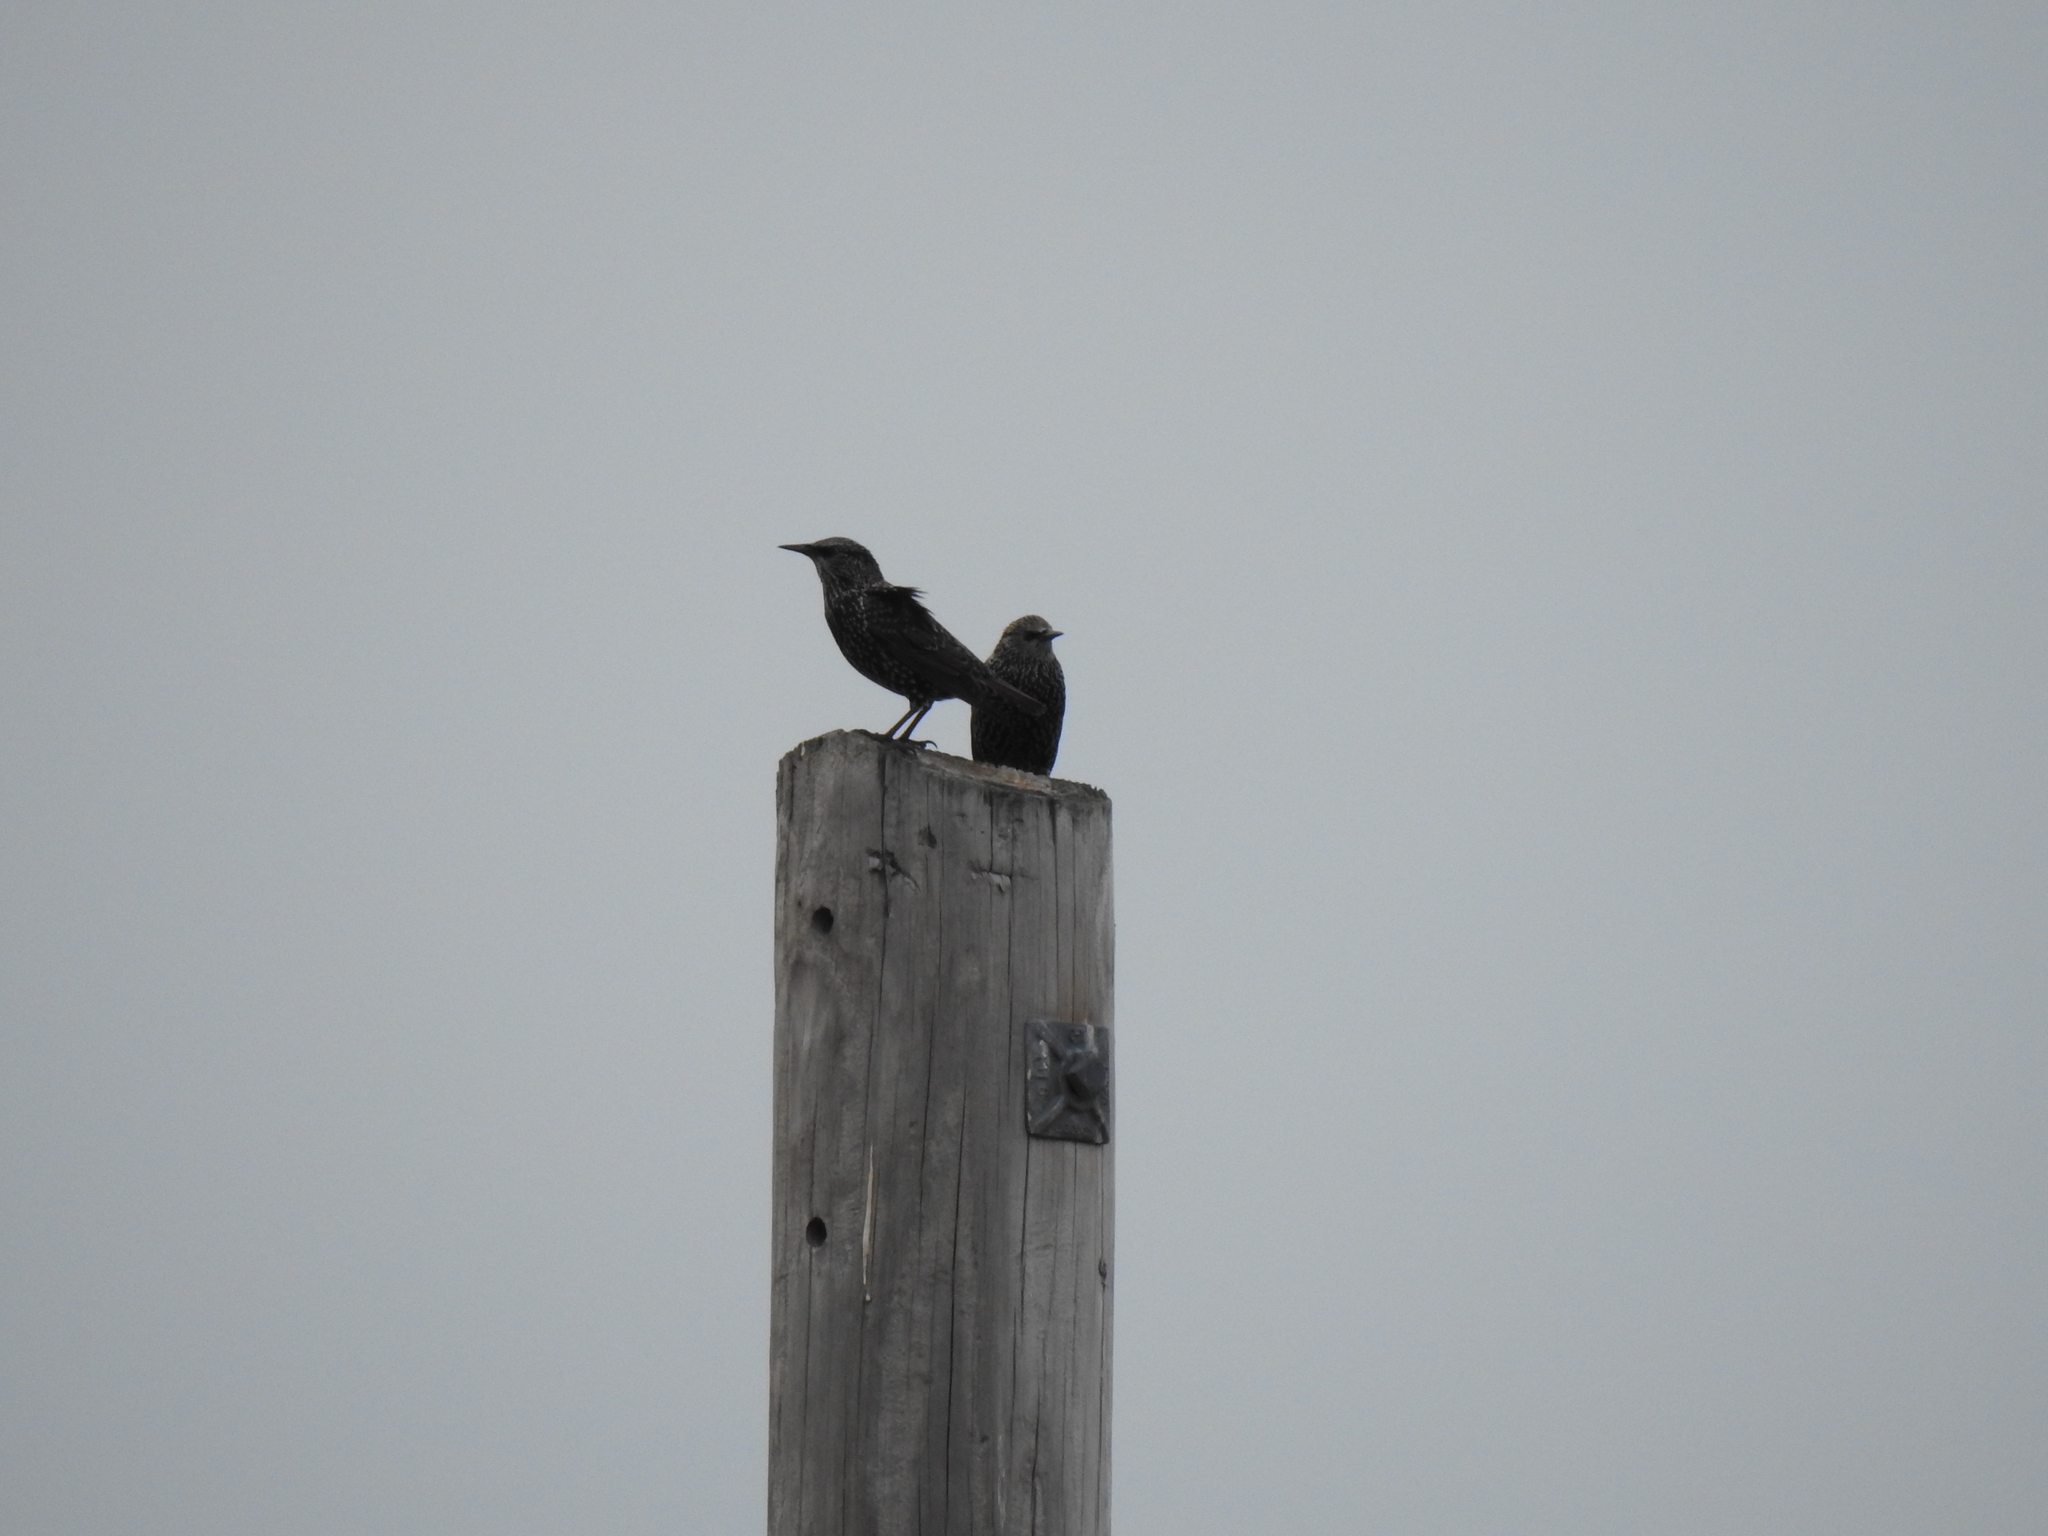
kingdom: Animalia
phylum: Chordata
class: Aves
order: Passeriformes
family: Sturnidae
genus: Sturnus
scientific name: Sturnus vulgaris
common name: Common starling
